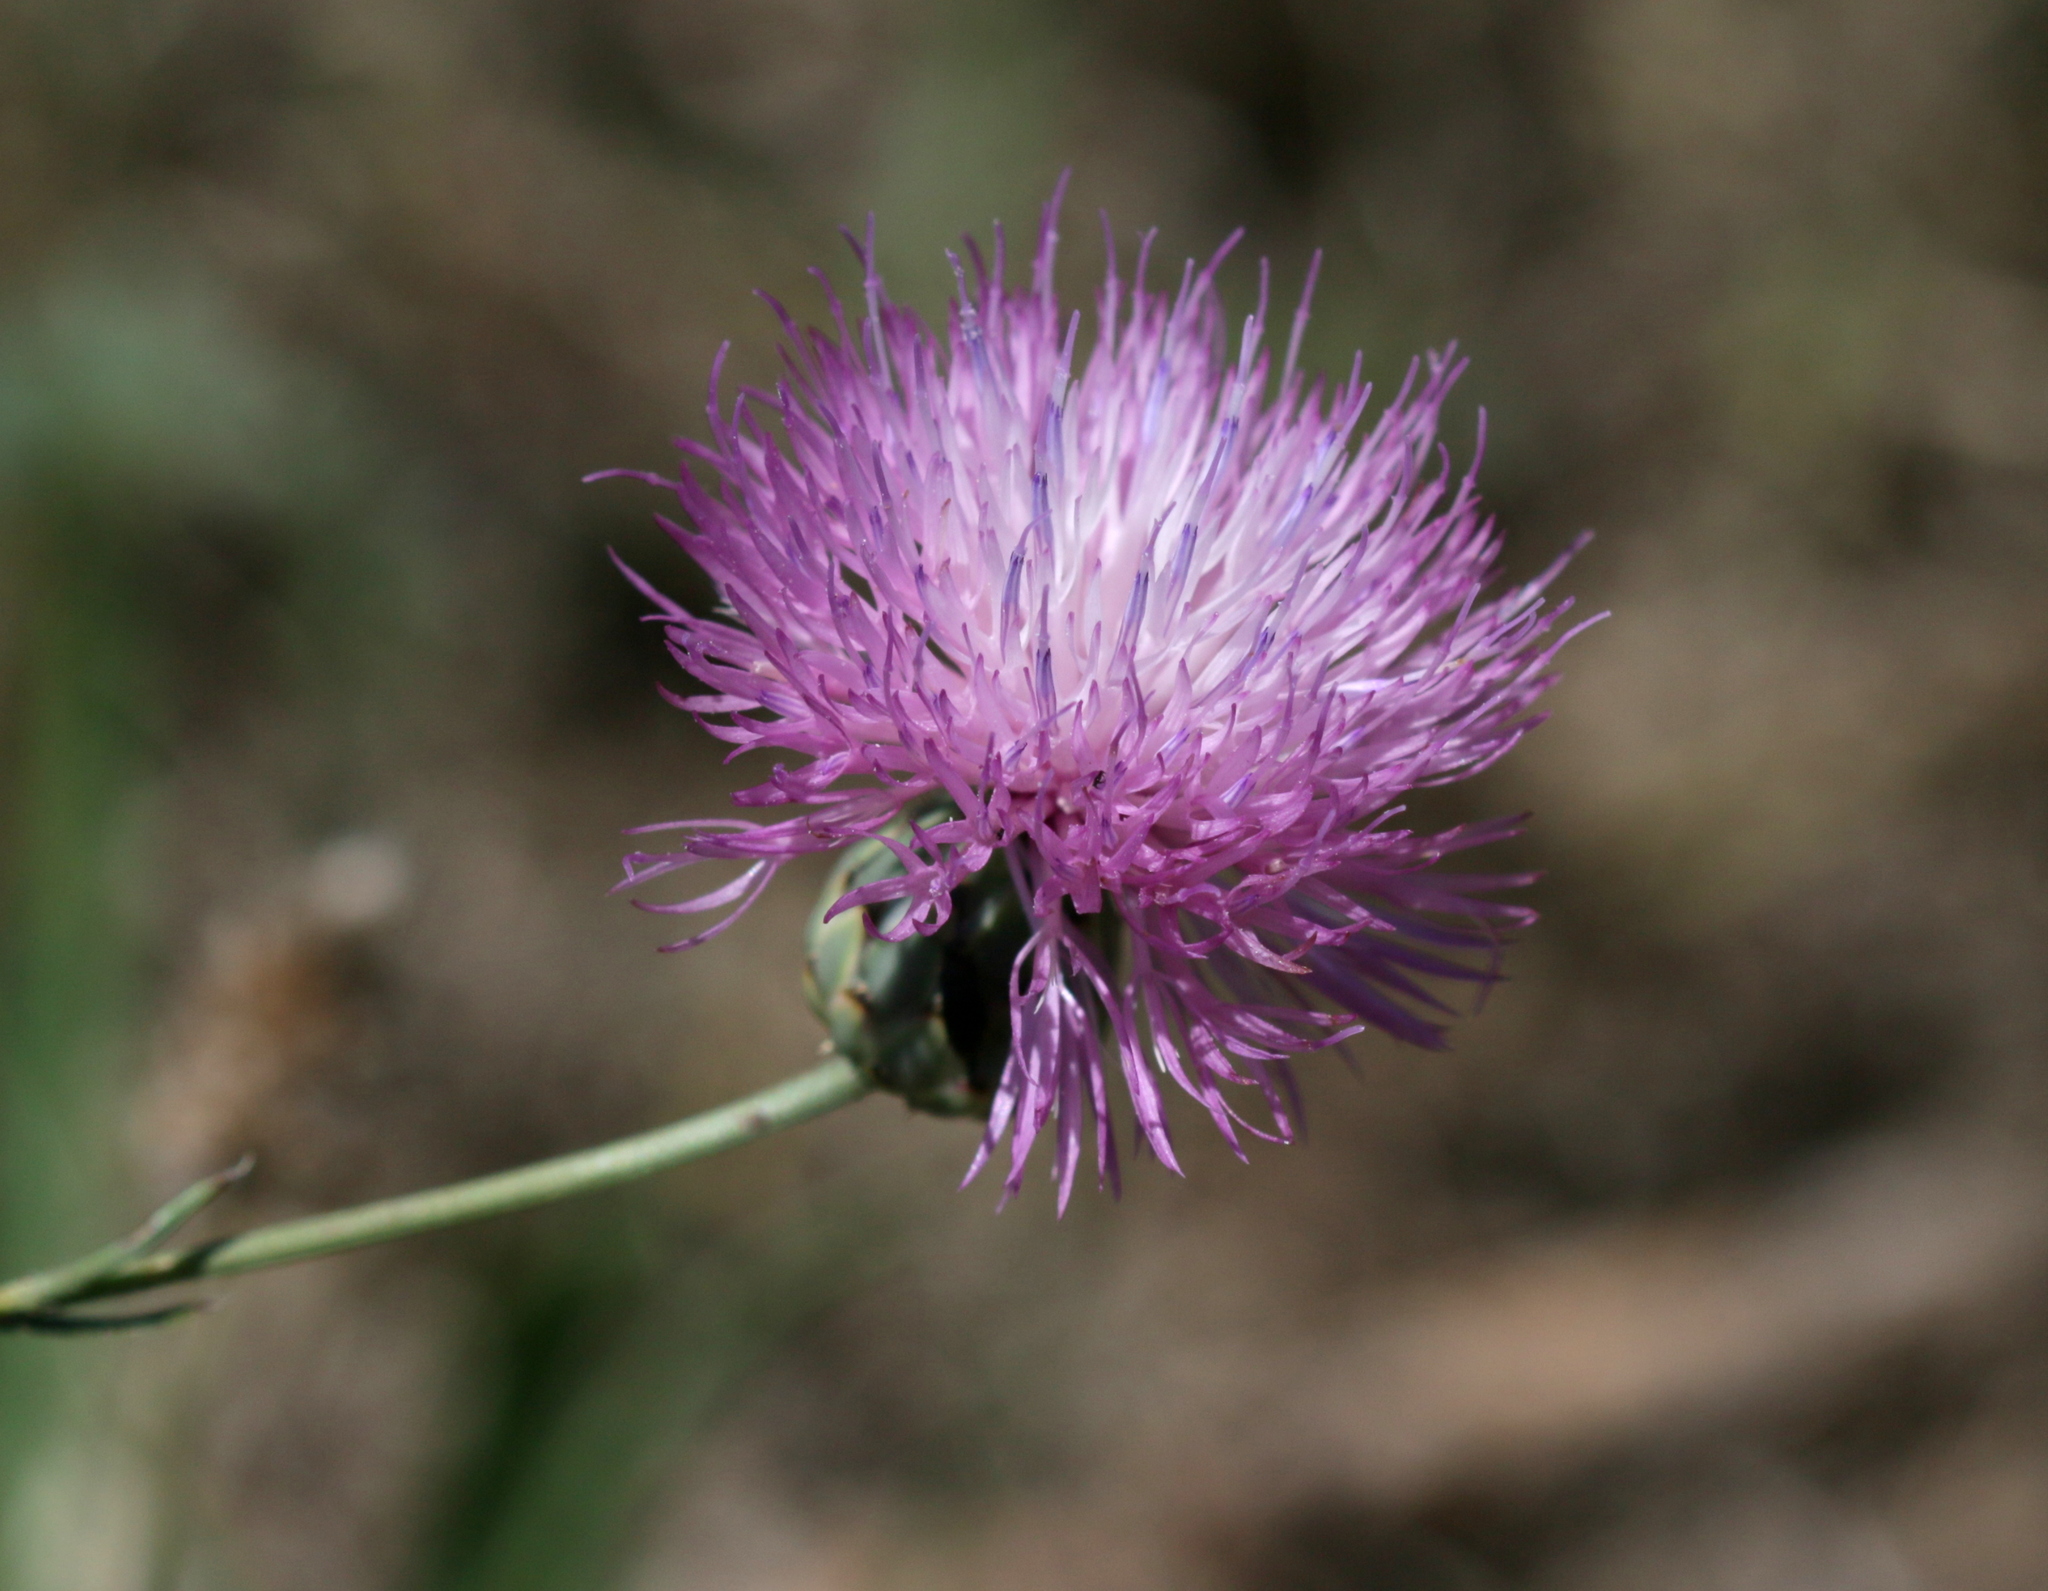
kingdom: Plantae
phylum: Tracheophyta
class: Magnoliopsida
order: Asterales
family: Asteraceae
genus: Mantisalca
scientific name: Mantisalca salmantica
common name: Dagger flower
